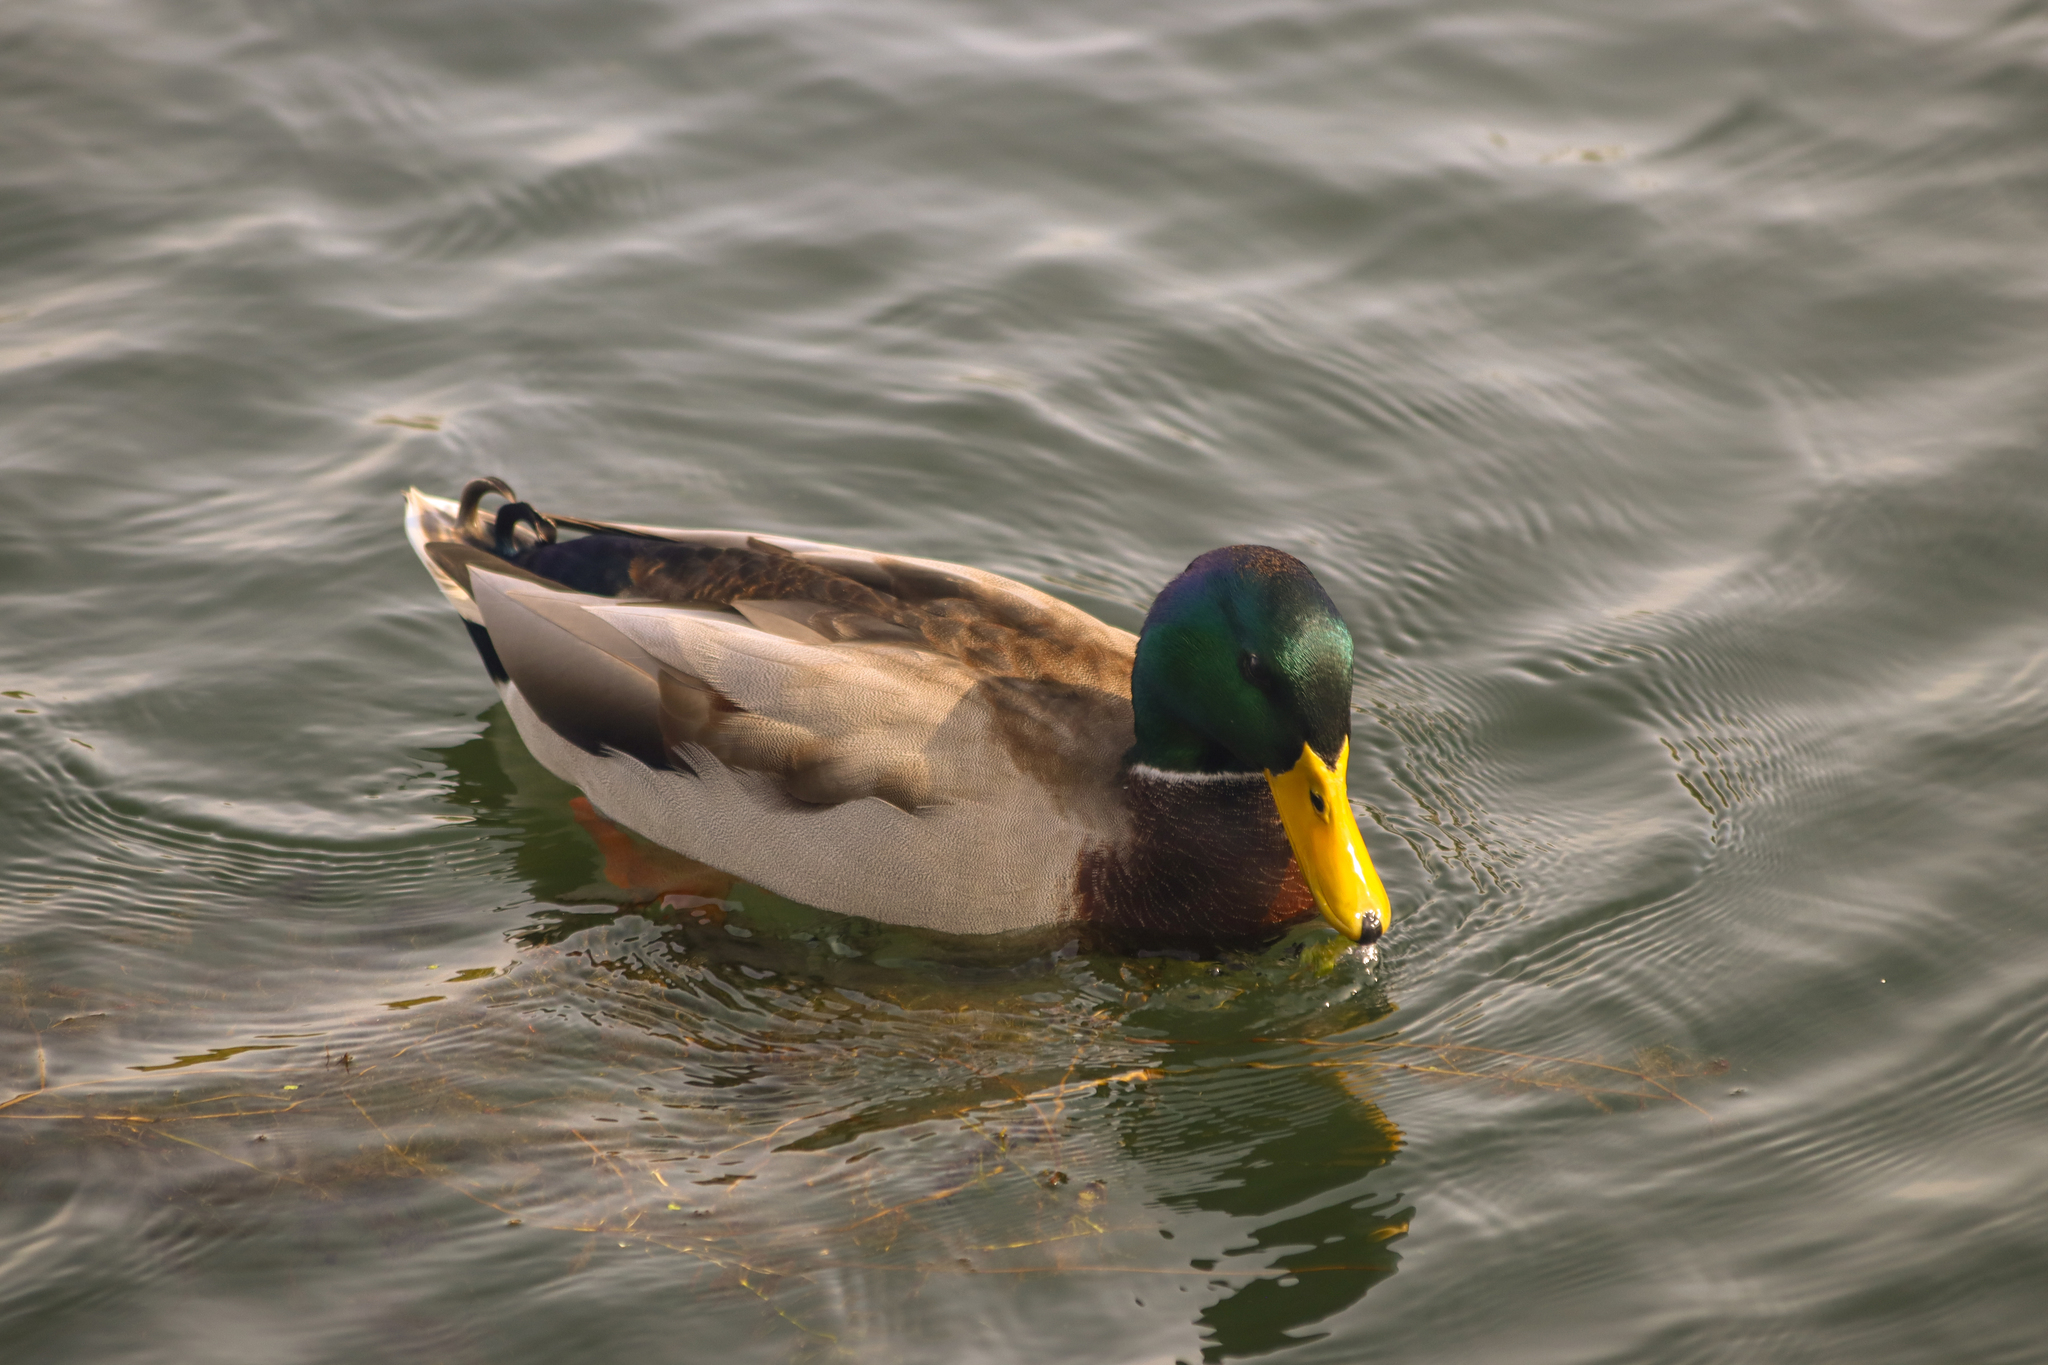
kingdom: Animalia
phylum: Chordata
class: Aves
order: Anseriformes
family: Anatidae
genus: Anas
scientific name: Anas platyrhynchos
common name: Mallard
